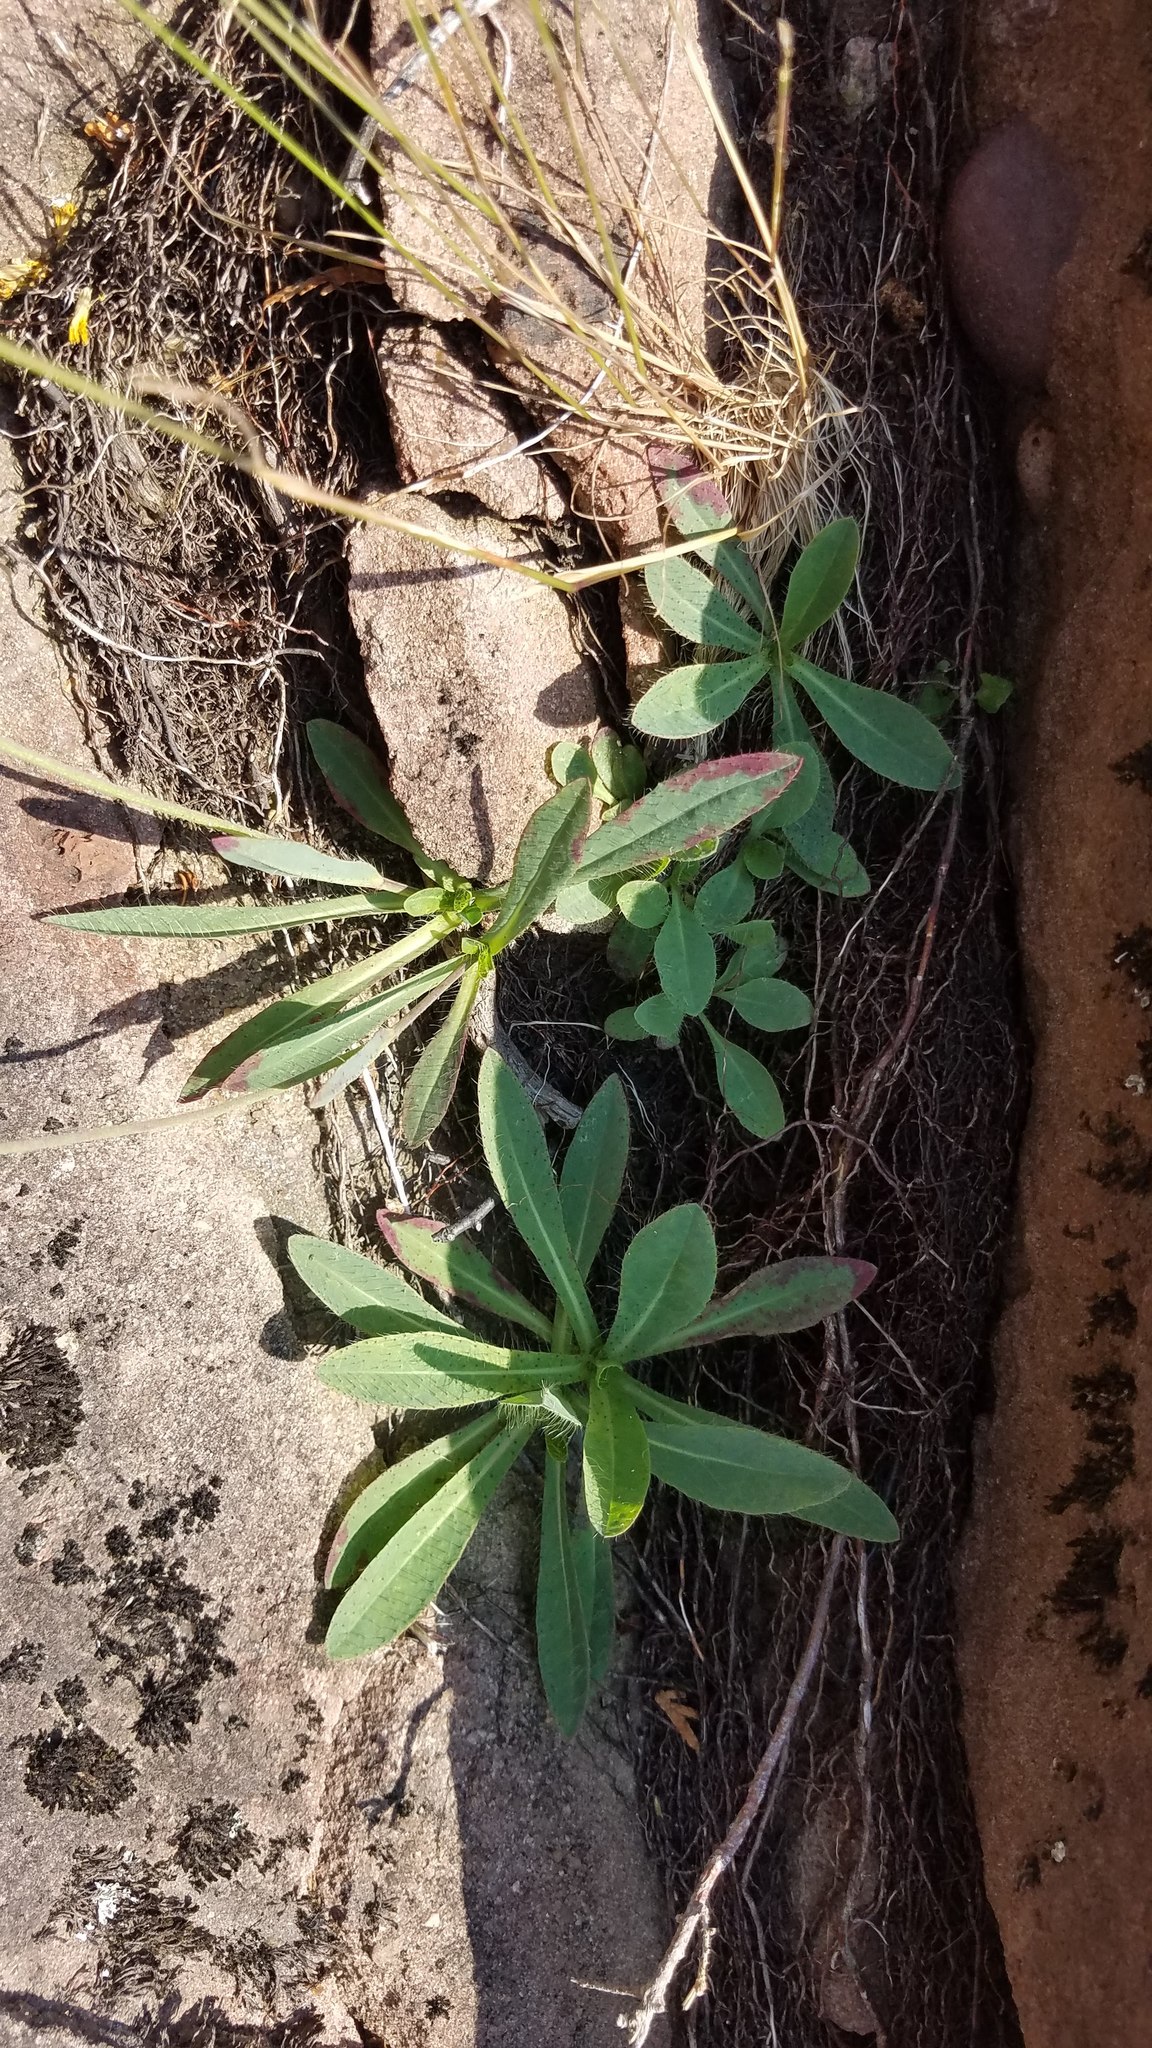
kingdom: Plantae
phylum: Tracheophyta
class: Magnoliopsida
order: Asterales
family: Asteraceae
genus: Pilosella
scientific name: Pilosella piloselloides
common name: Glaucous king-devil
